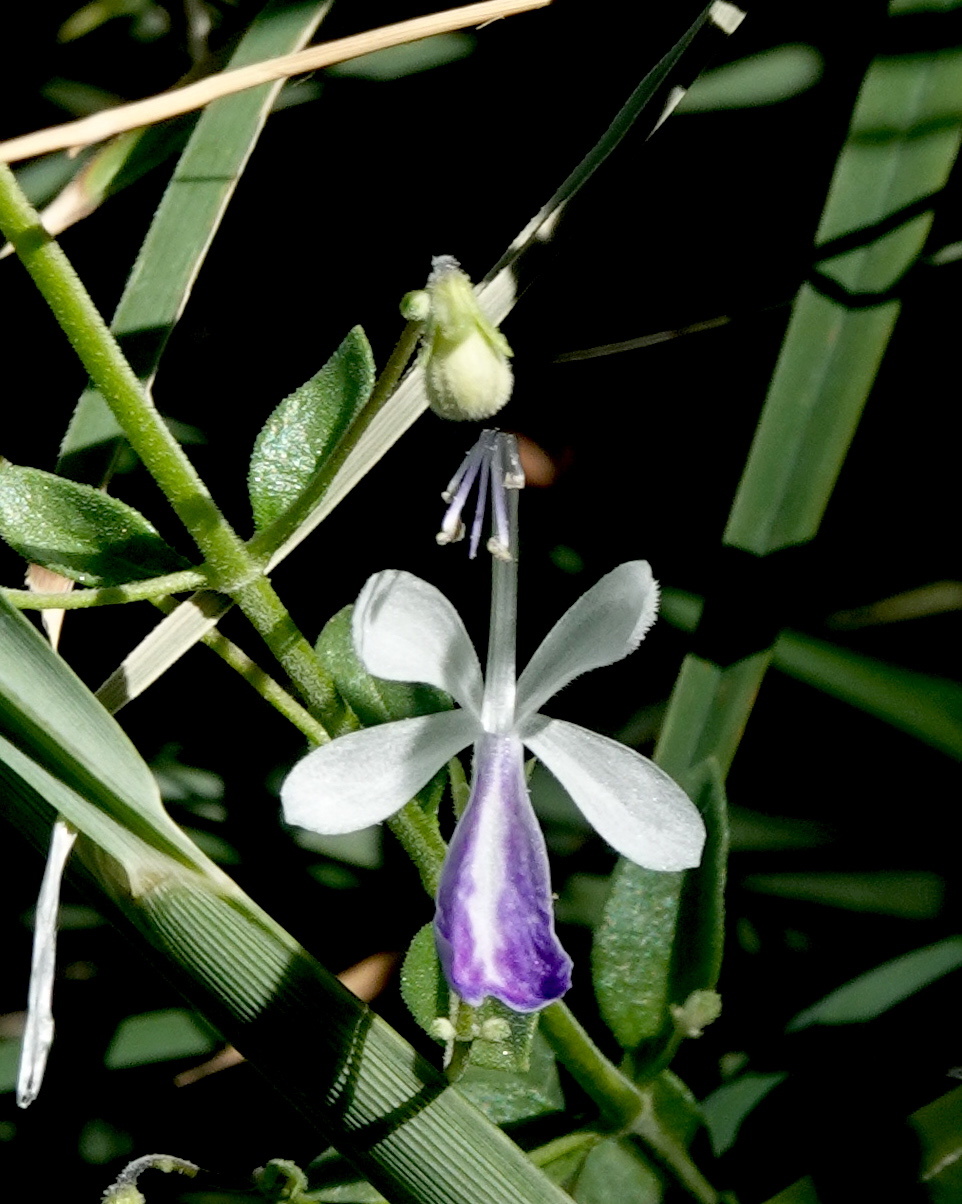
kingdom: Plantae
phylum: Tracheophyta
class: Magnoliopsida
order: Lamiales
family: Lamiaceae
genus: Trichostema
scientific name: Trichostema arizonicum
